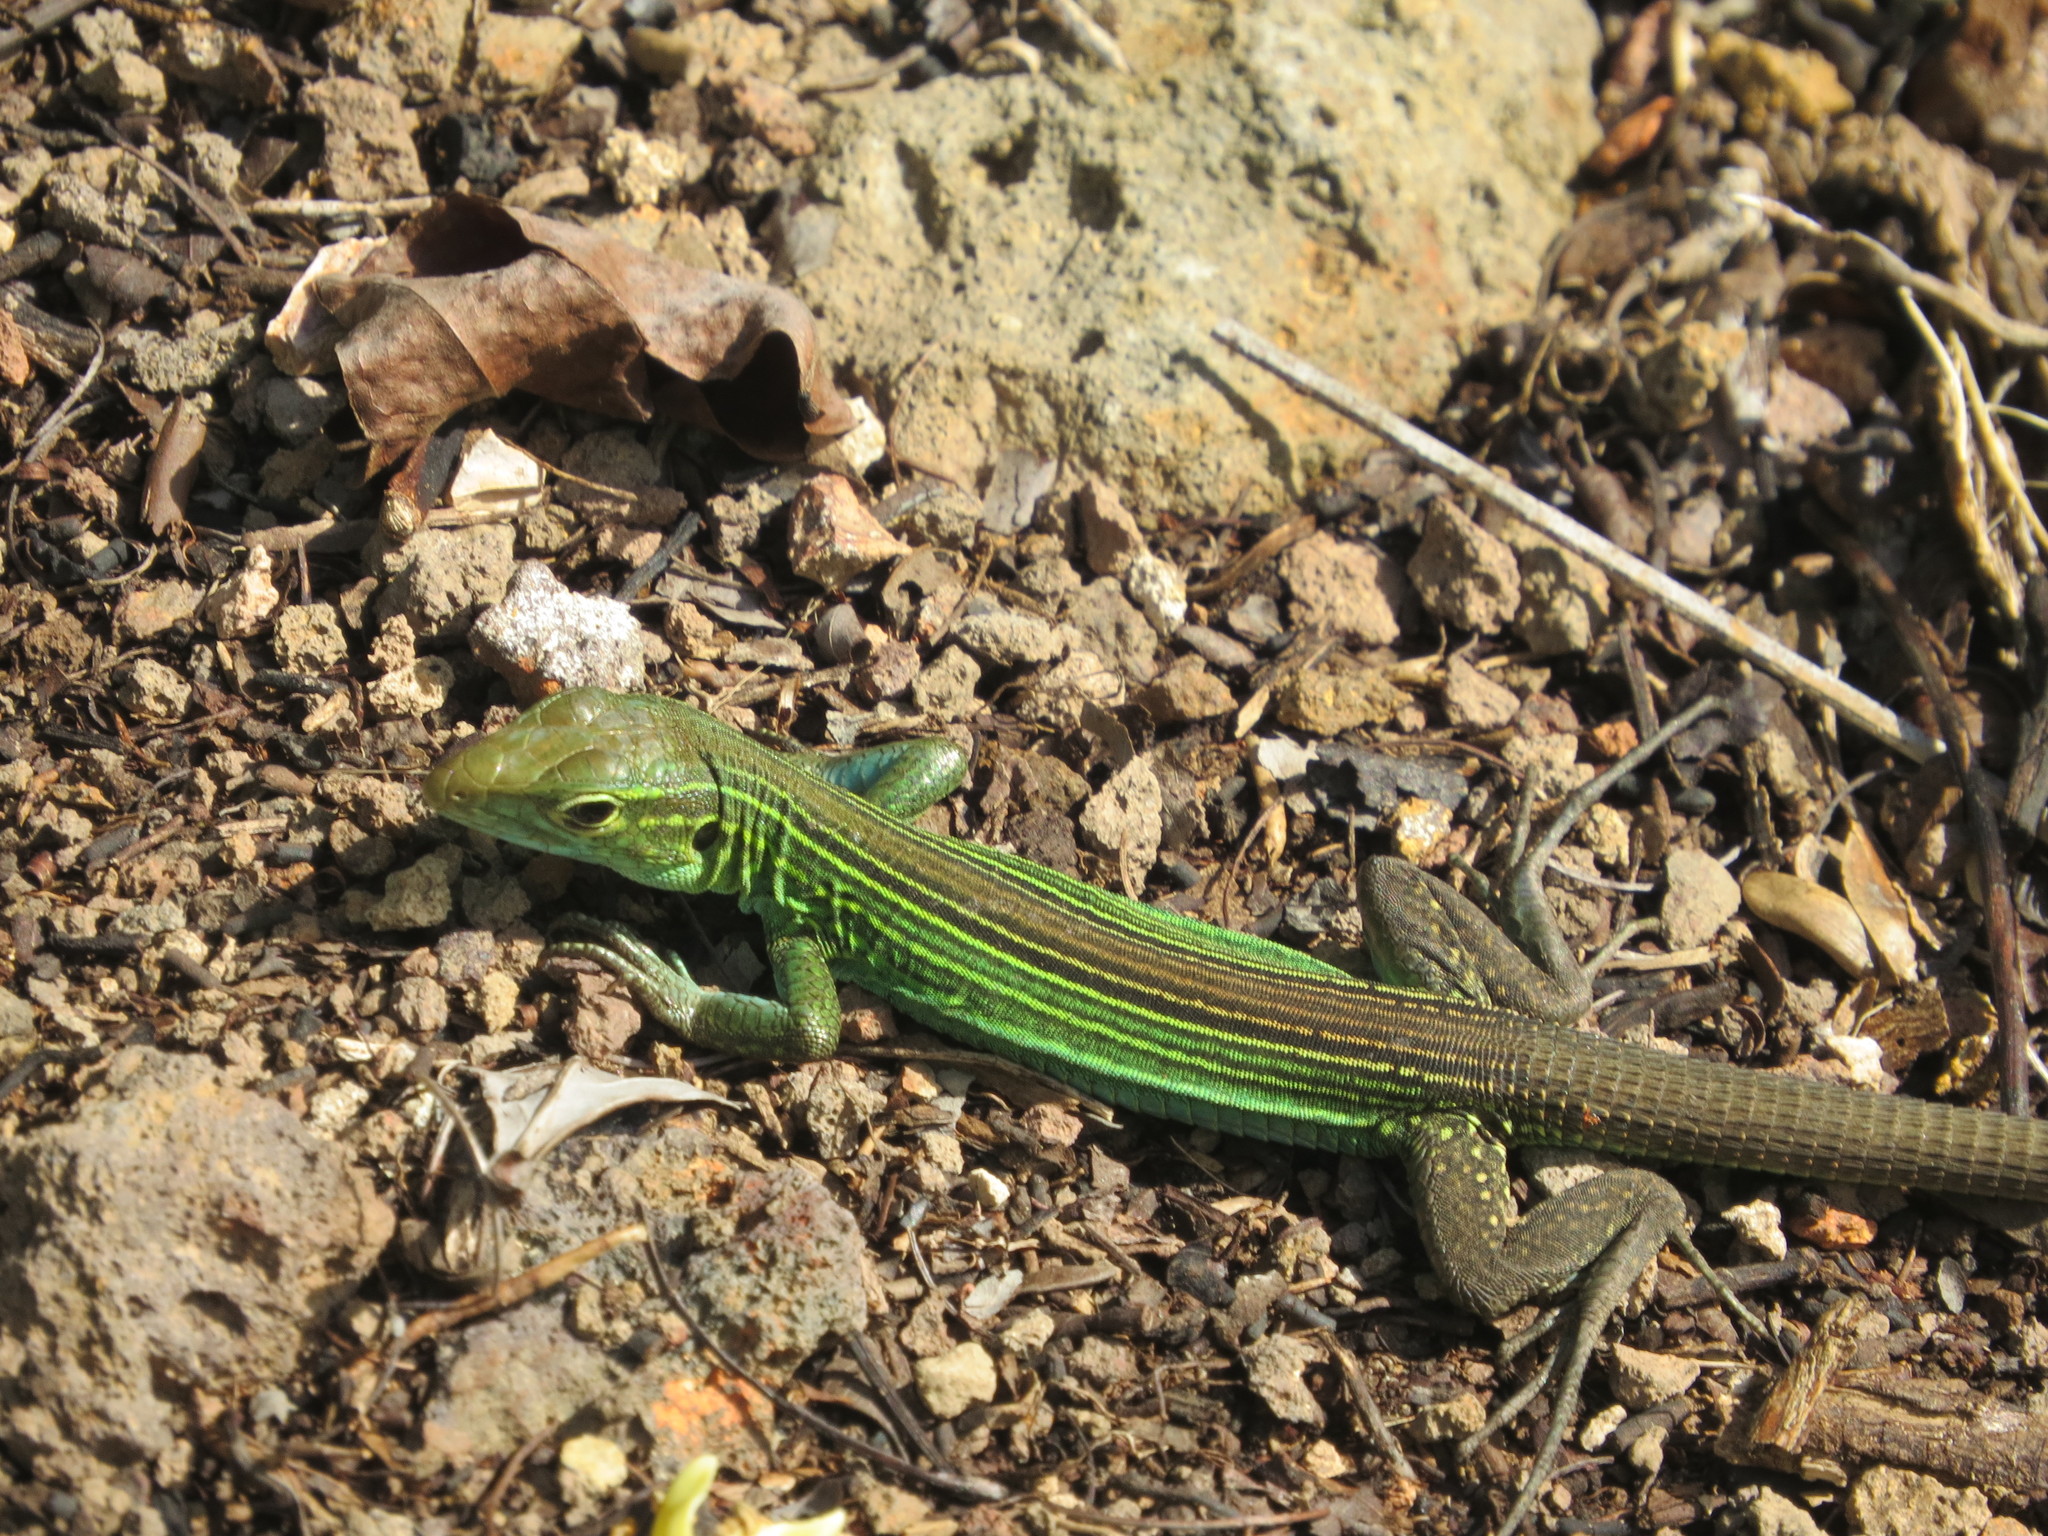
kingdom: Animalia
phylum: Chordata
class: Squamata
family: Teiidae
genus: Cnemidophorus
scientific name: Cnemidophorus espeuti
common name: Rainbow lizard
